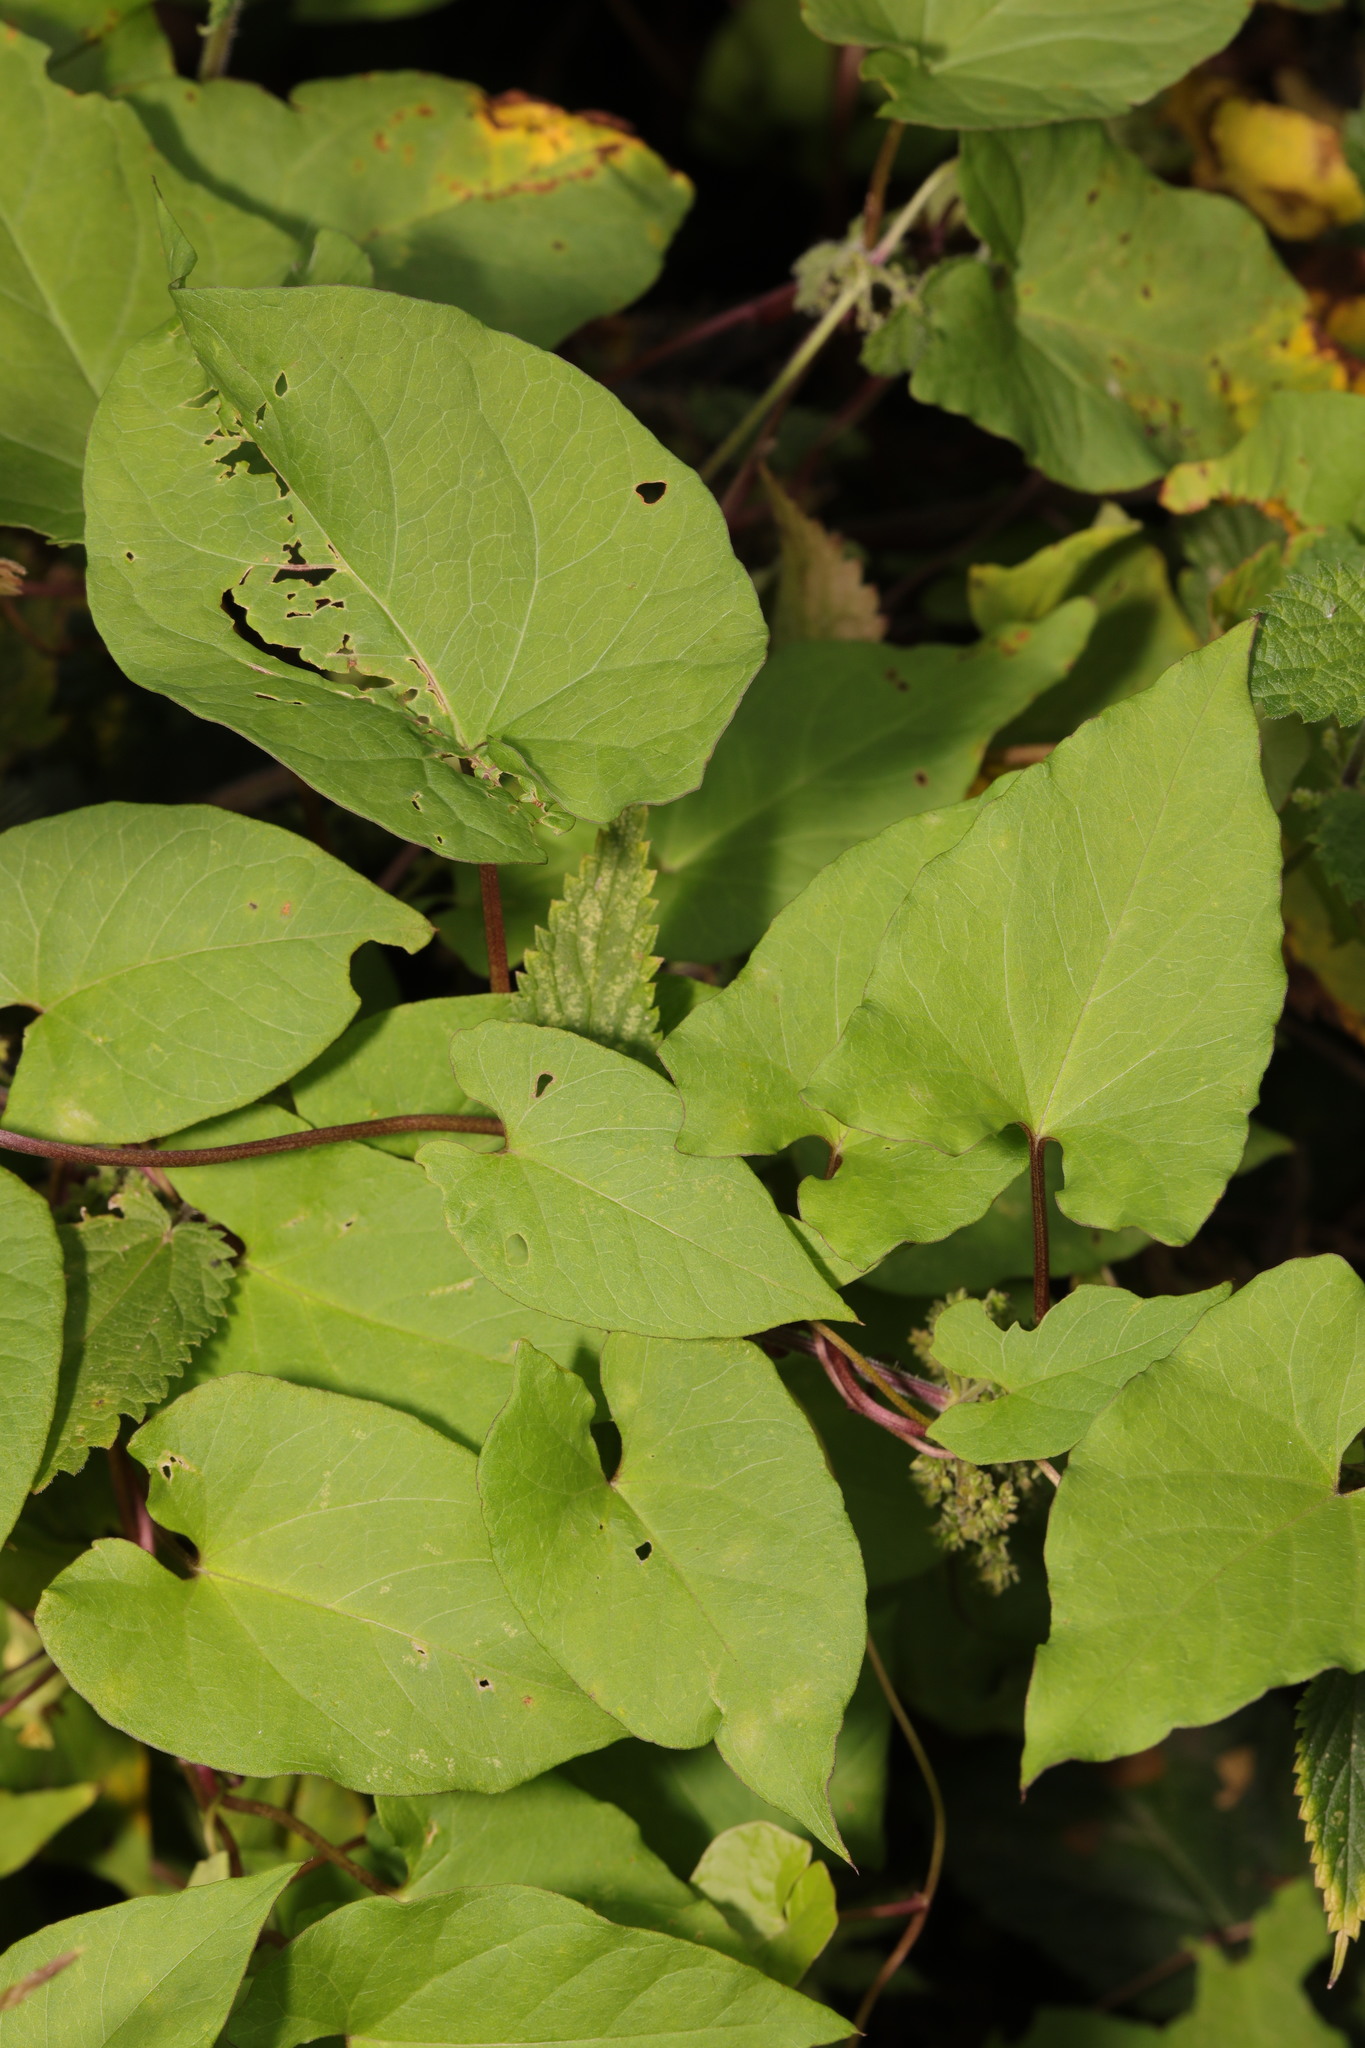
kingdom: Plantae
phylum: Tracheophyta
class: Magnoliopsida
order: Solanales
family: Convolvulaceae
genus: Calystegia
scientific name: Calystegia
